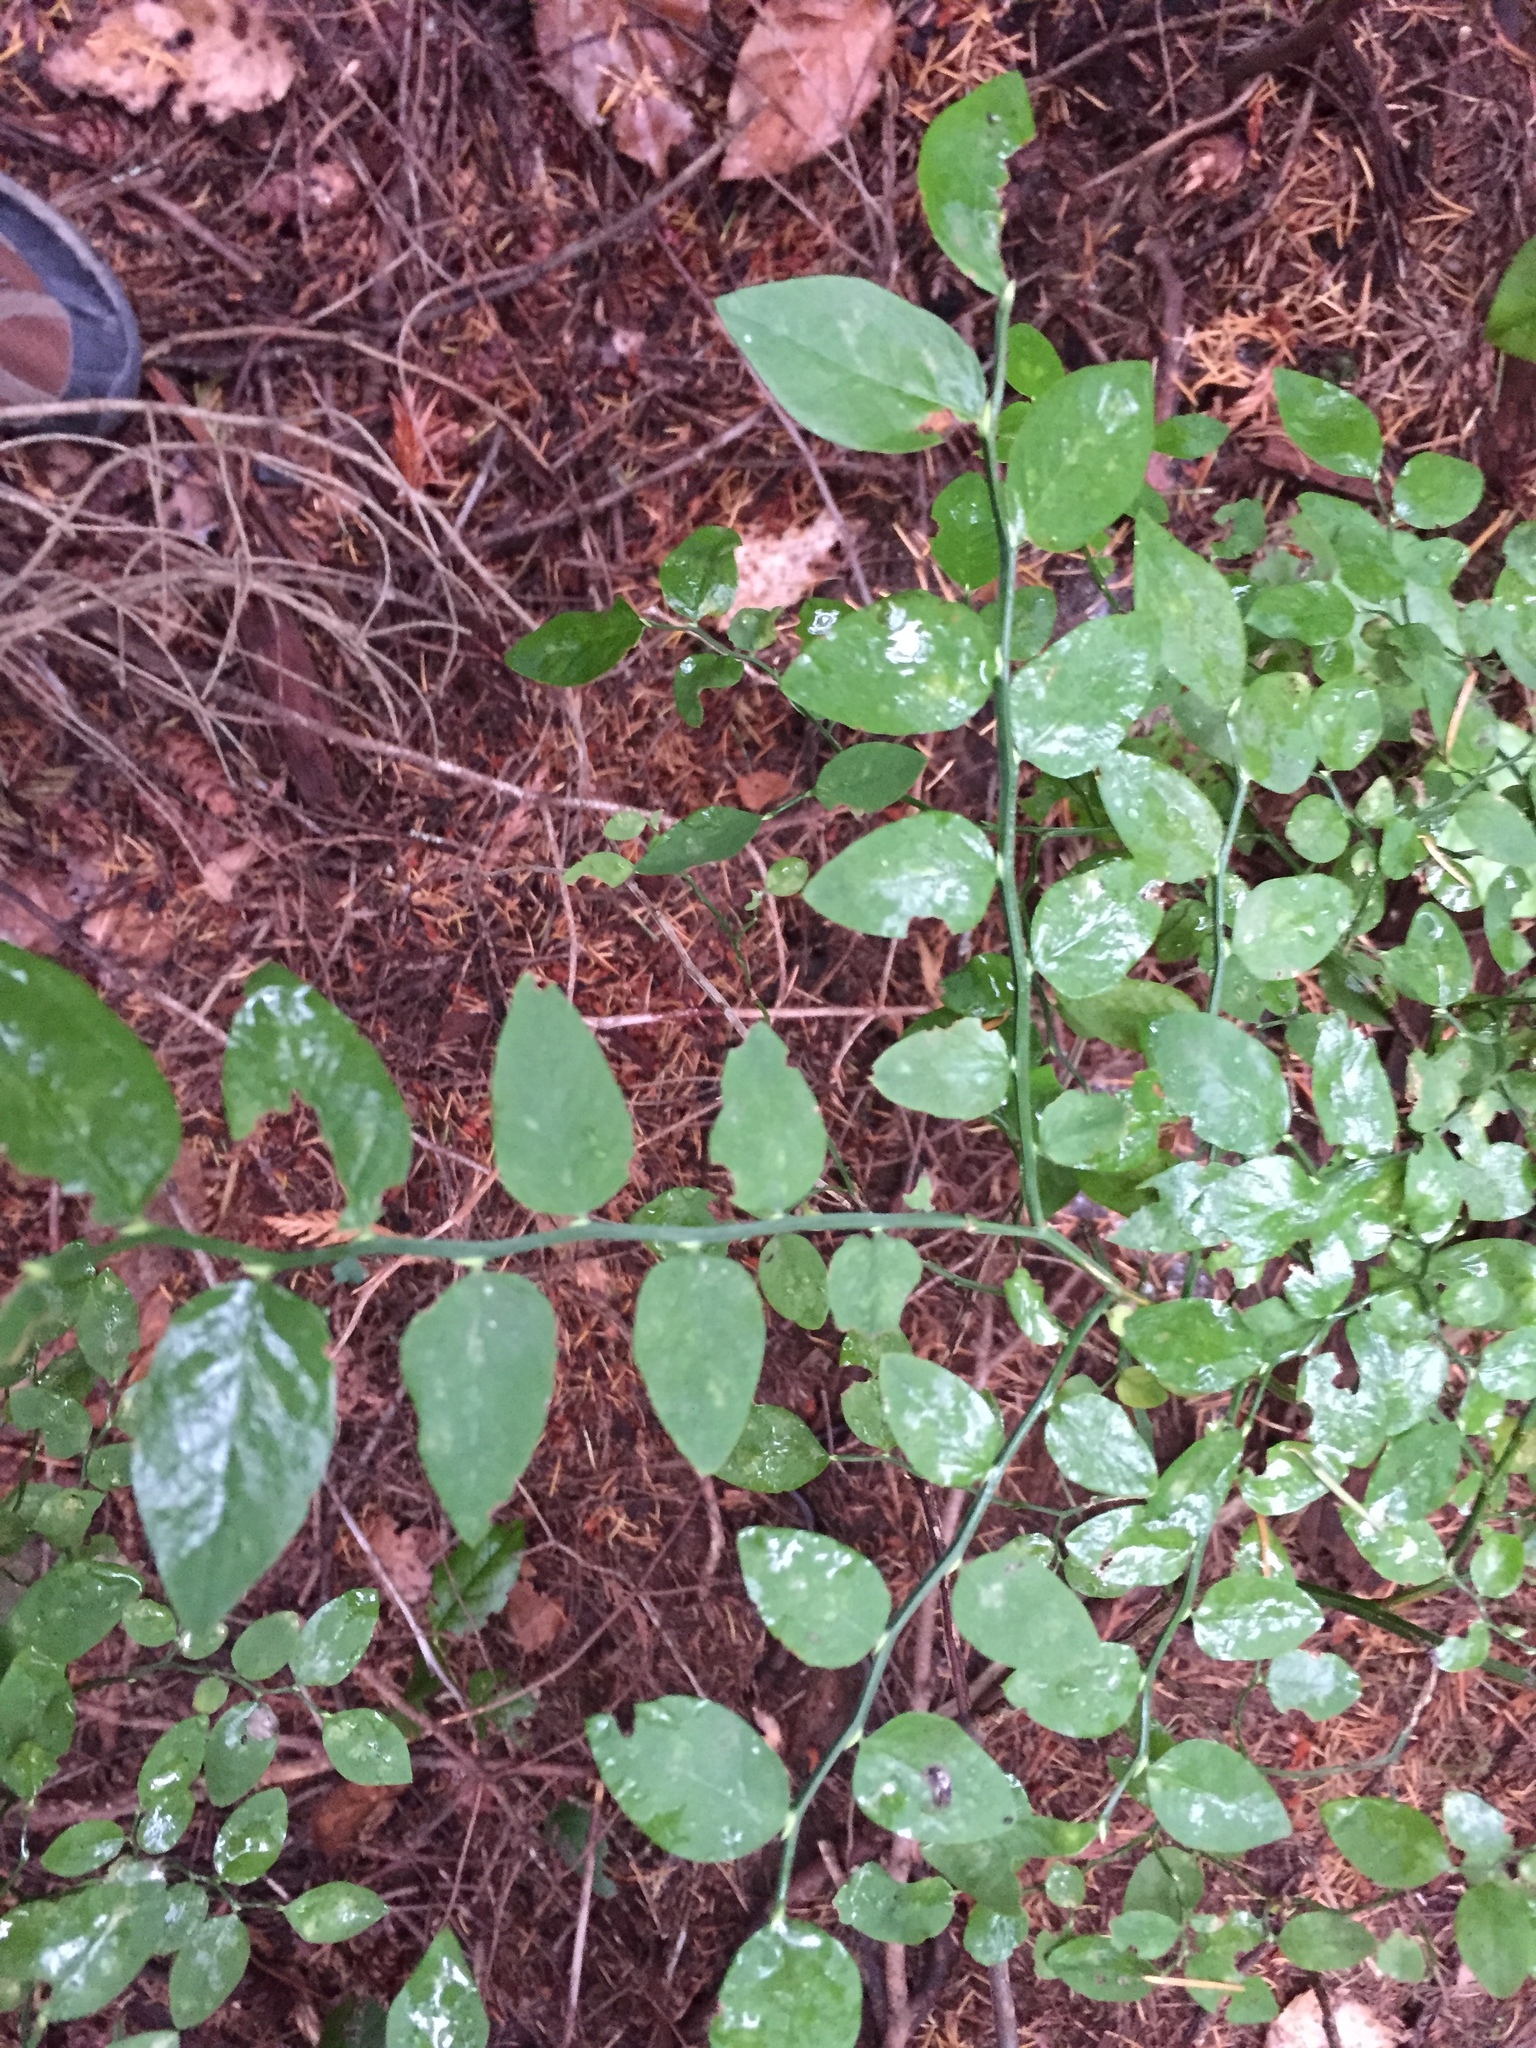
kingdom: Plantae
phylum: Tracheophyta
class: Magnoliopsida
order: Ericales
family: Ericaceae
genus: Vaccinium
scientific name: Vaccinium parvifolium
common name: Red-huckleberry
